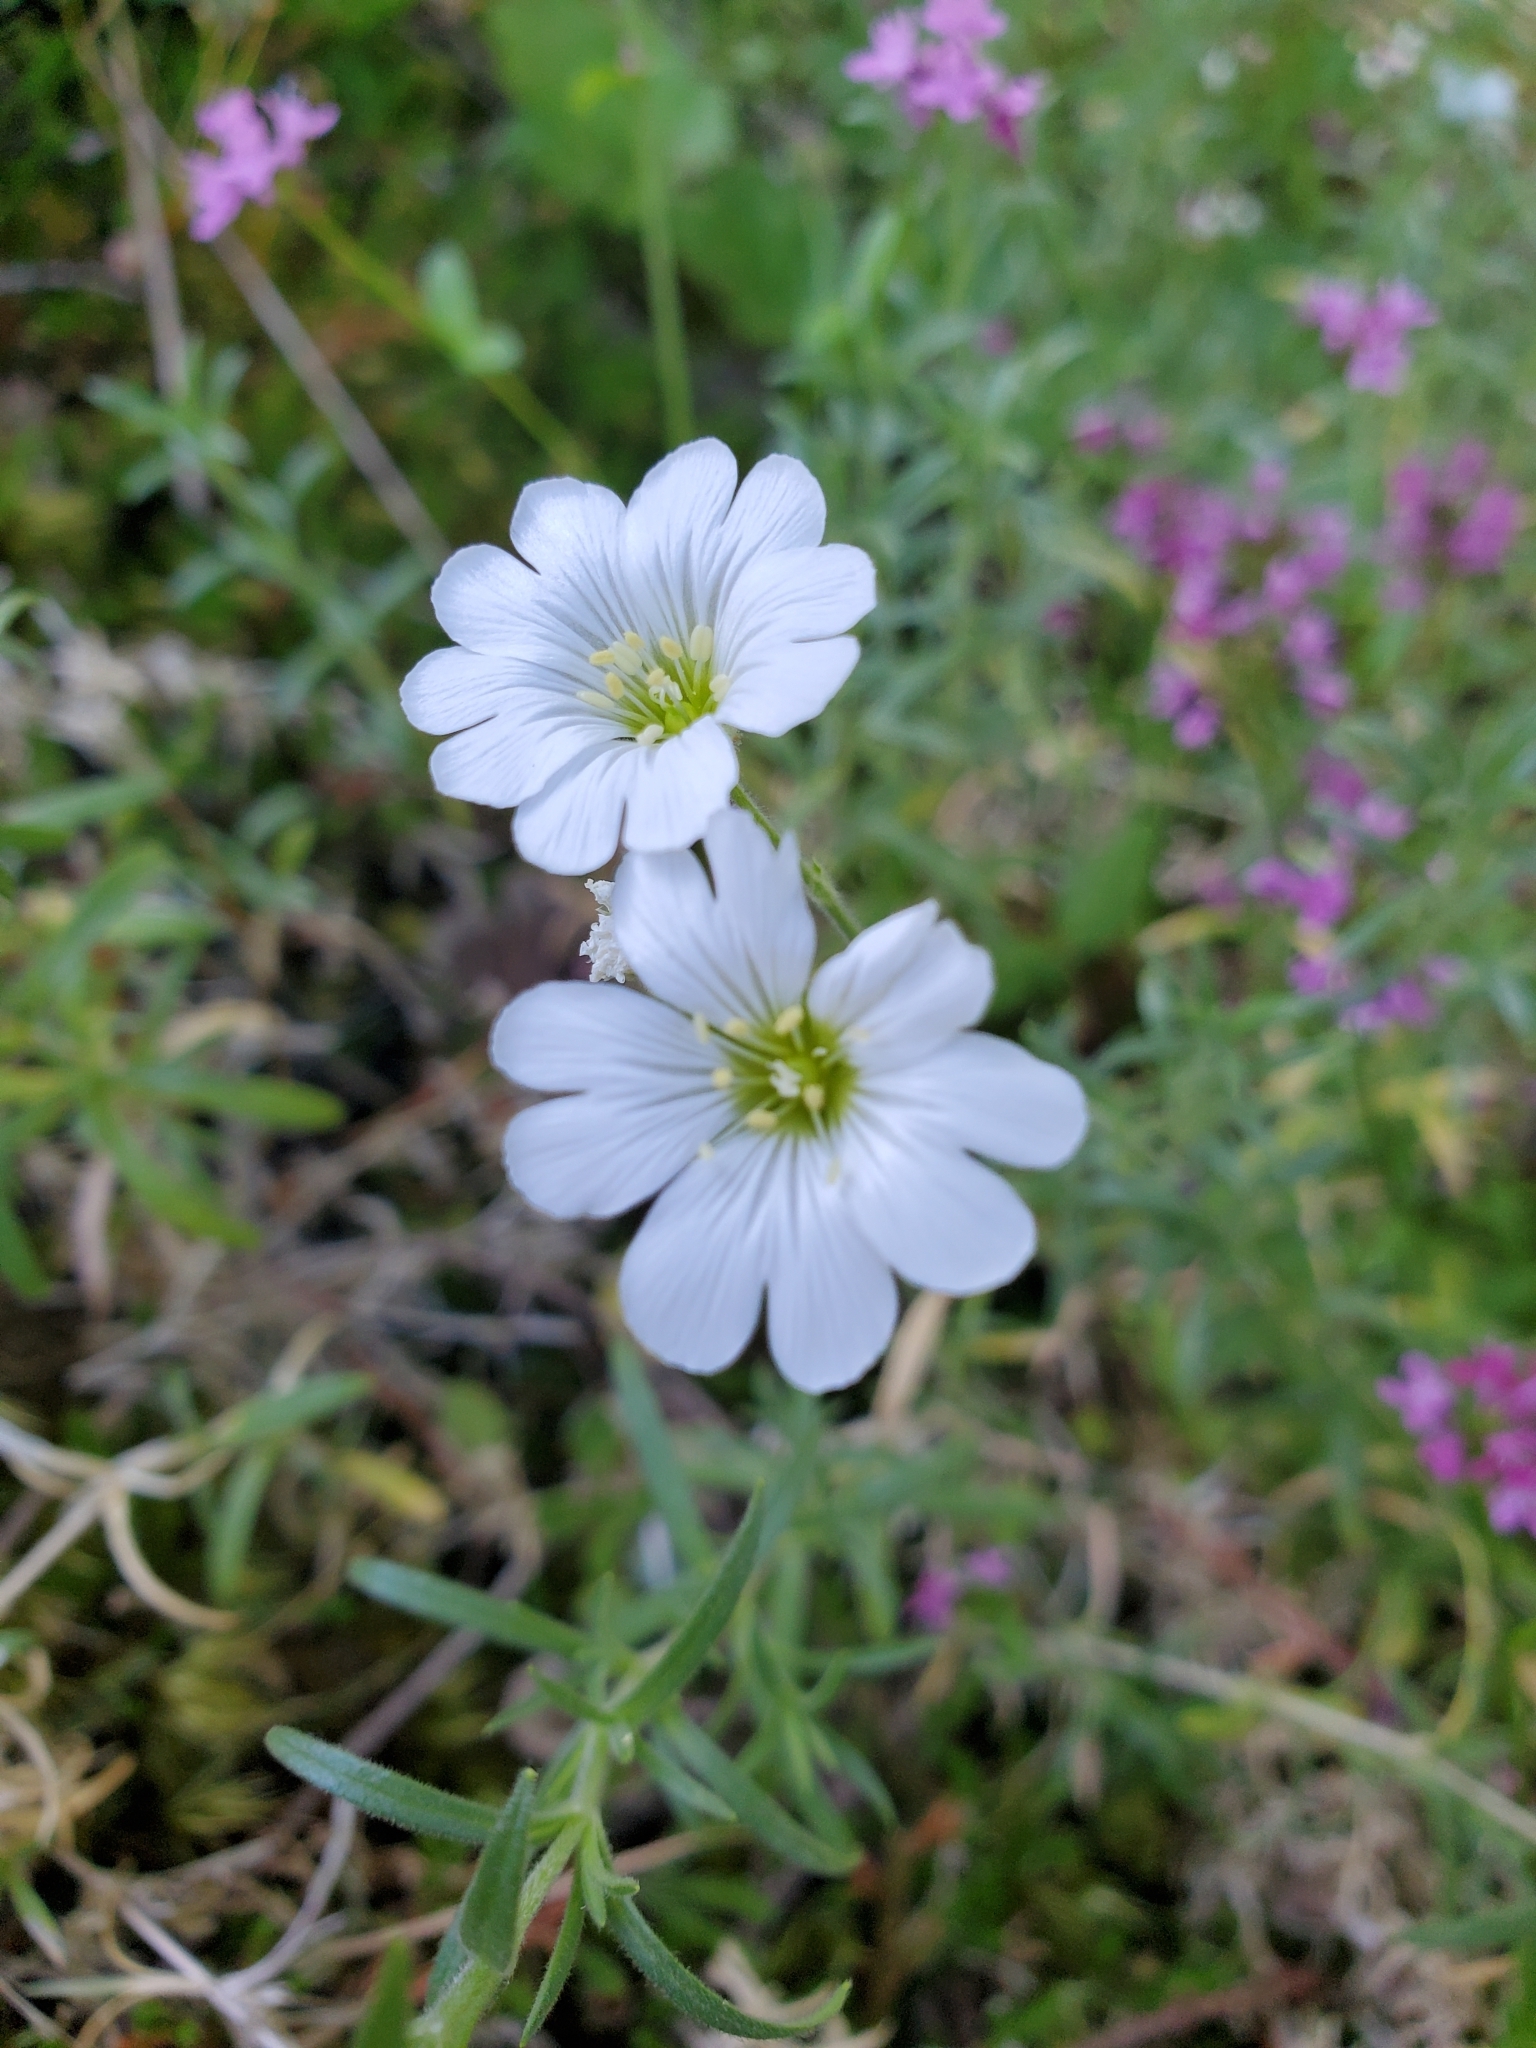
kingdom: Plantae
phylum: Tracheophyta
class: Magnoliopsida
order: Caryophyllales
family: Caryophyllaceae
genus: Cerastium
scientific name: Cerastium arvense
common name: Field mouse-ear
